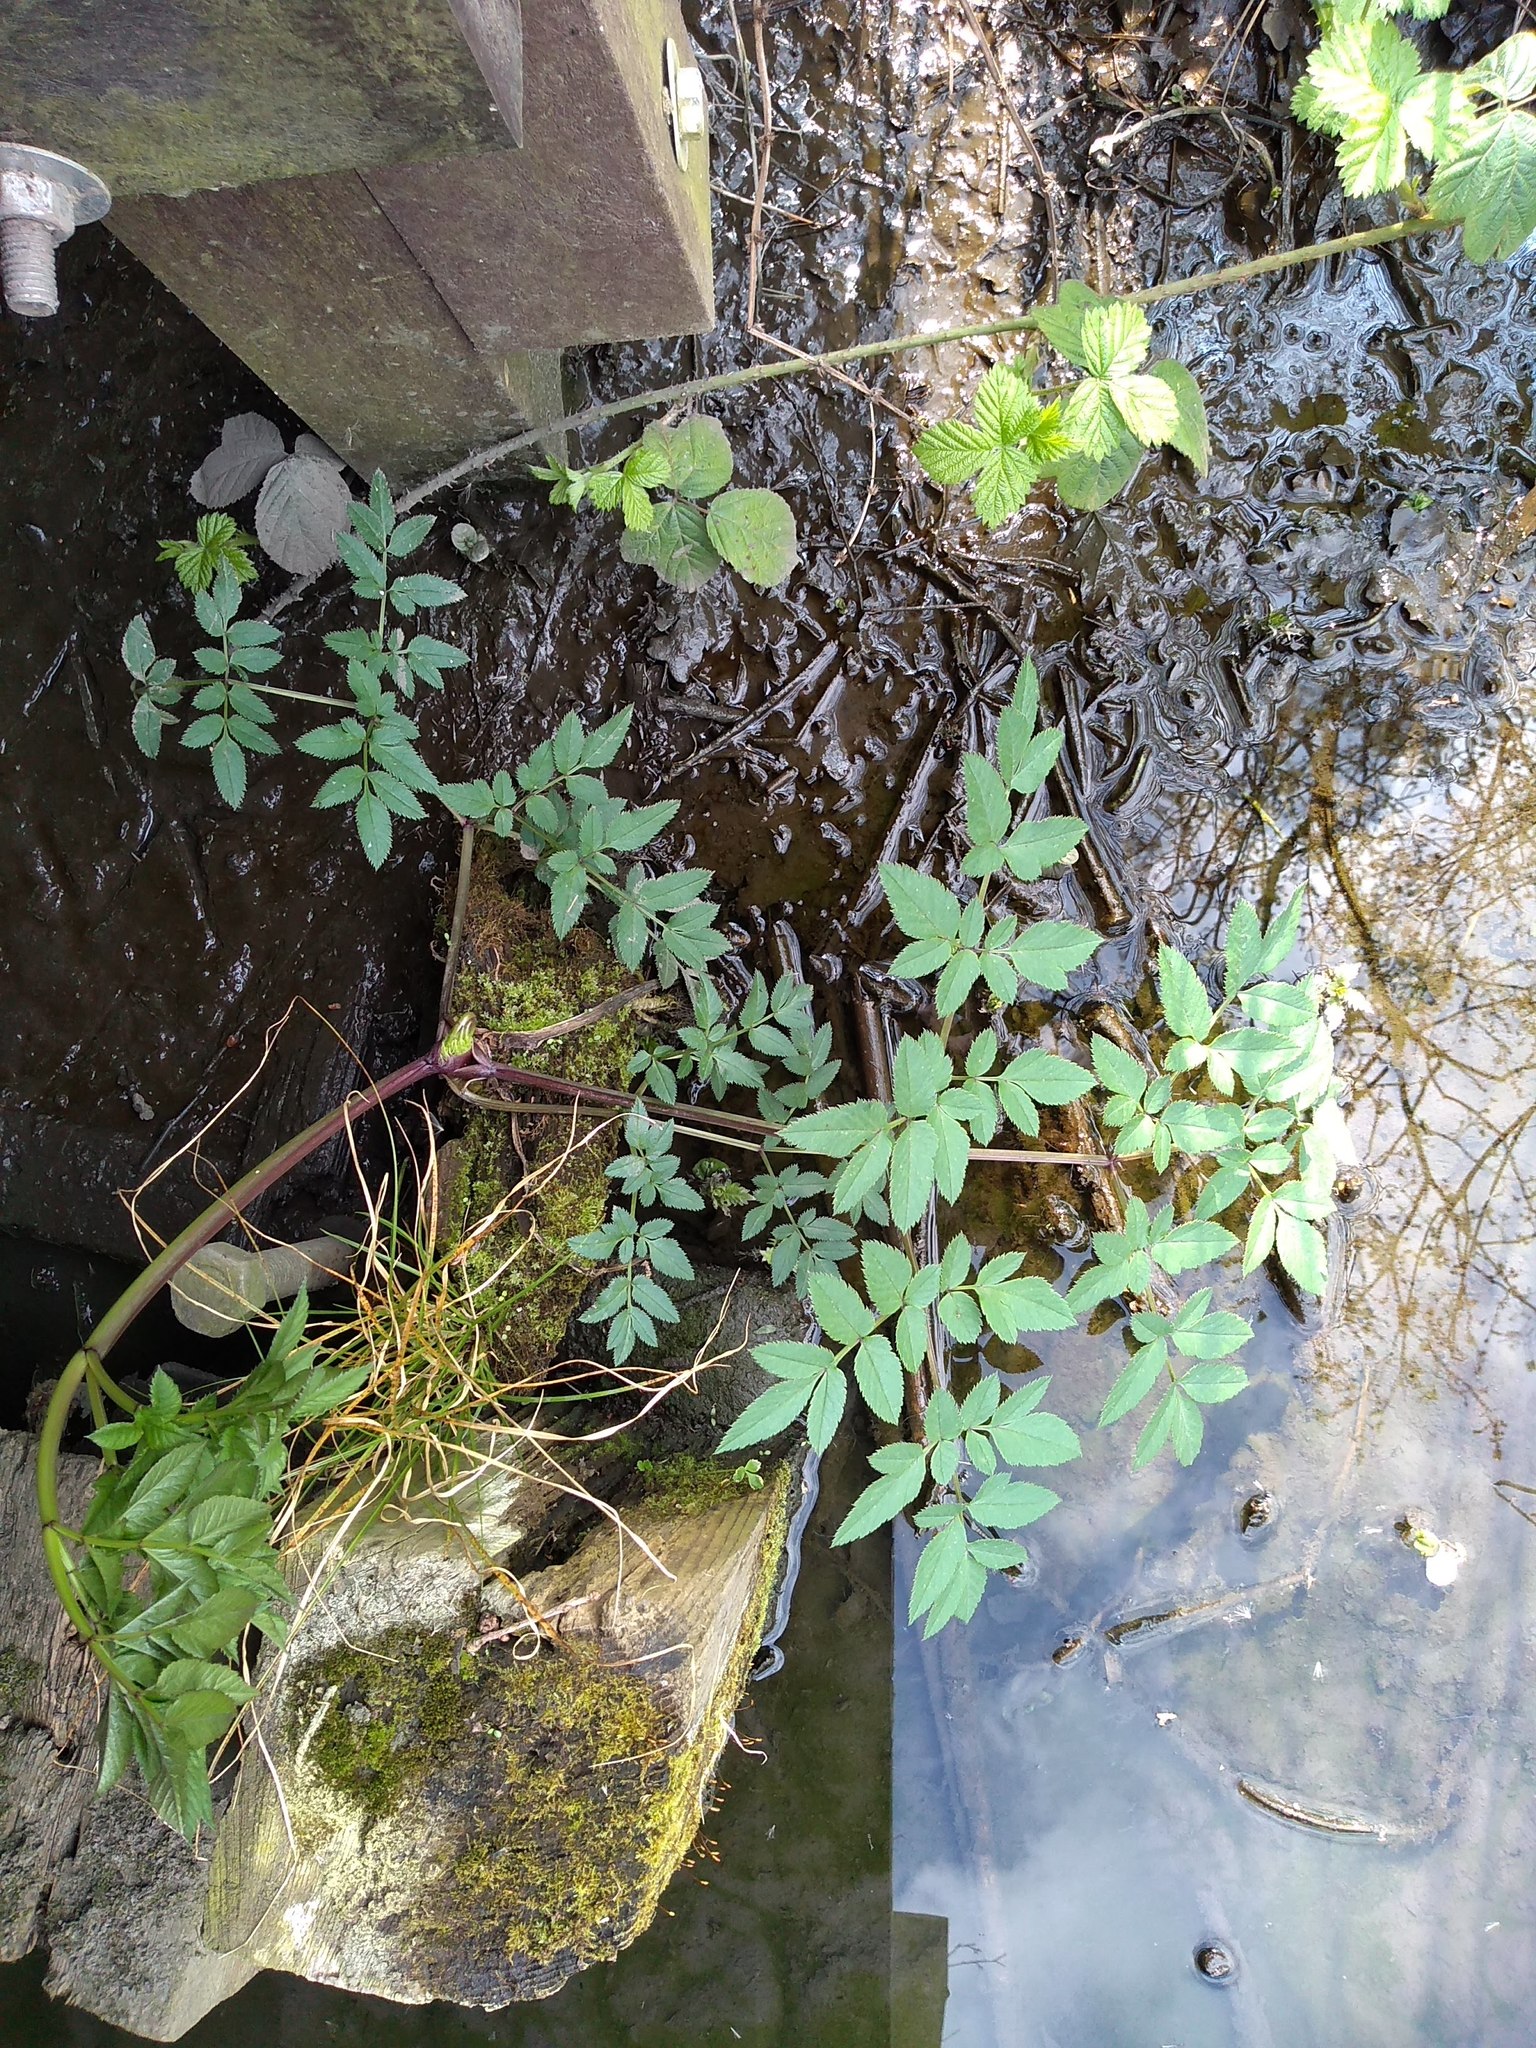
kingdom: Plantae
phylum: Tracheophyta
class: Magnoliopsida
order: Apiales
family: Apiaceae
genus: Angelica
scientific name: Angelica sylvestris
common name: Wild angelica
